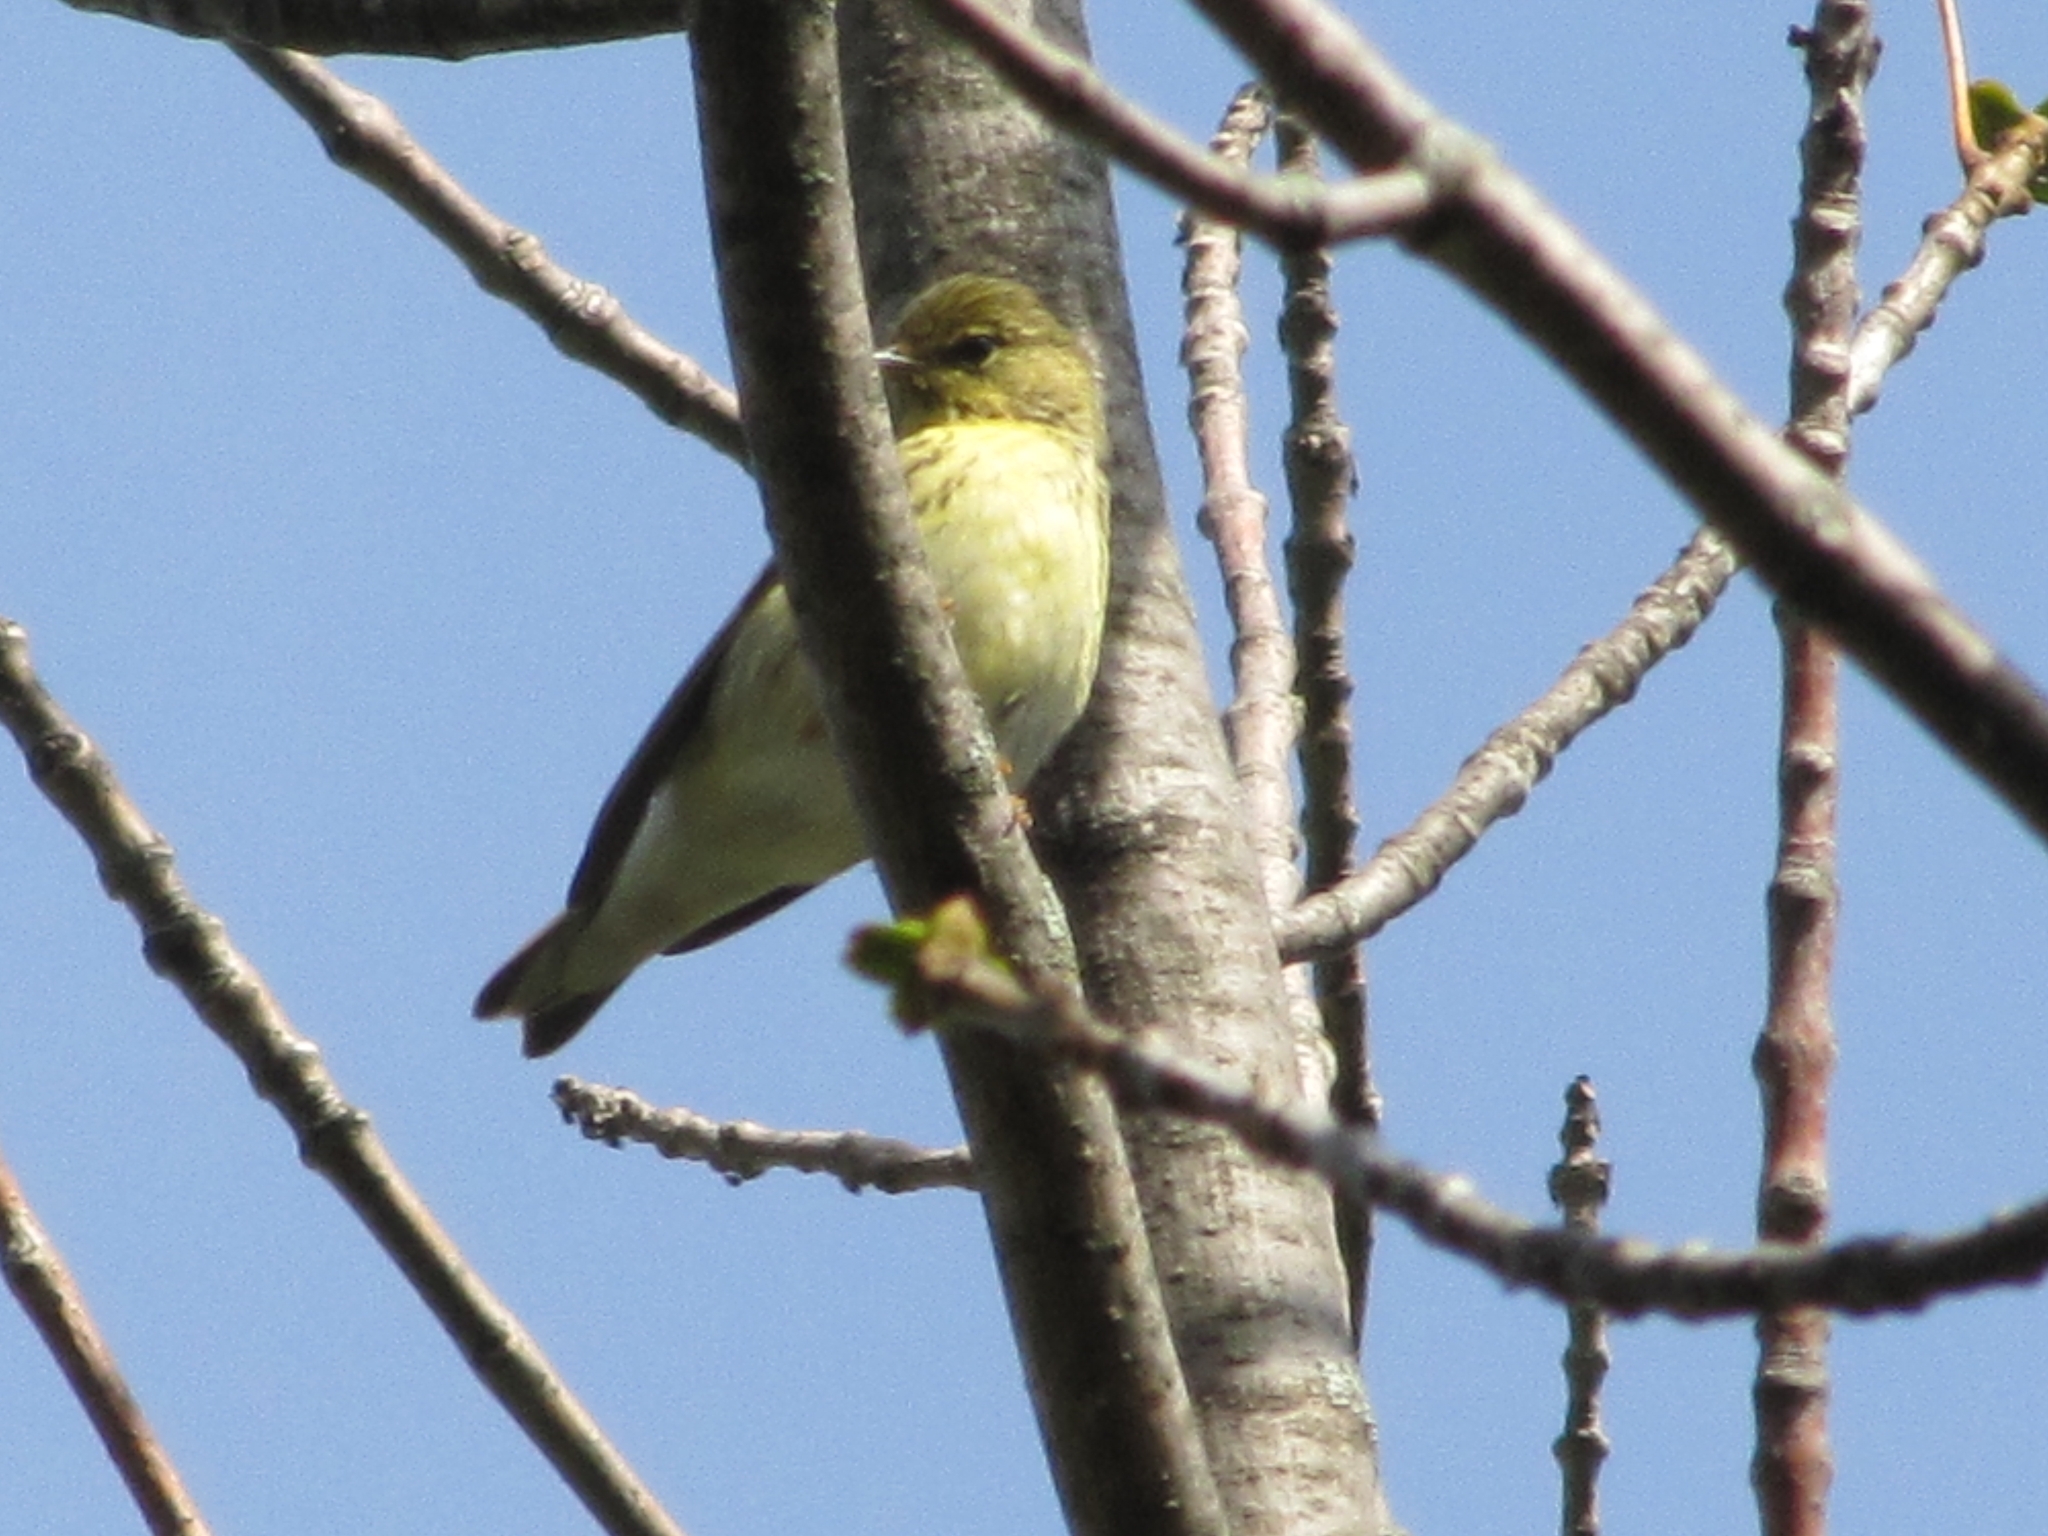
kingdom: Animalia
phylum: Chordata
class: Aves
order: Passeriformes
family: Parulidae
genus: Setophaga
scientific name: Setophaga striata
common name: Blackpoll warbler
